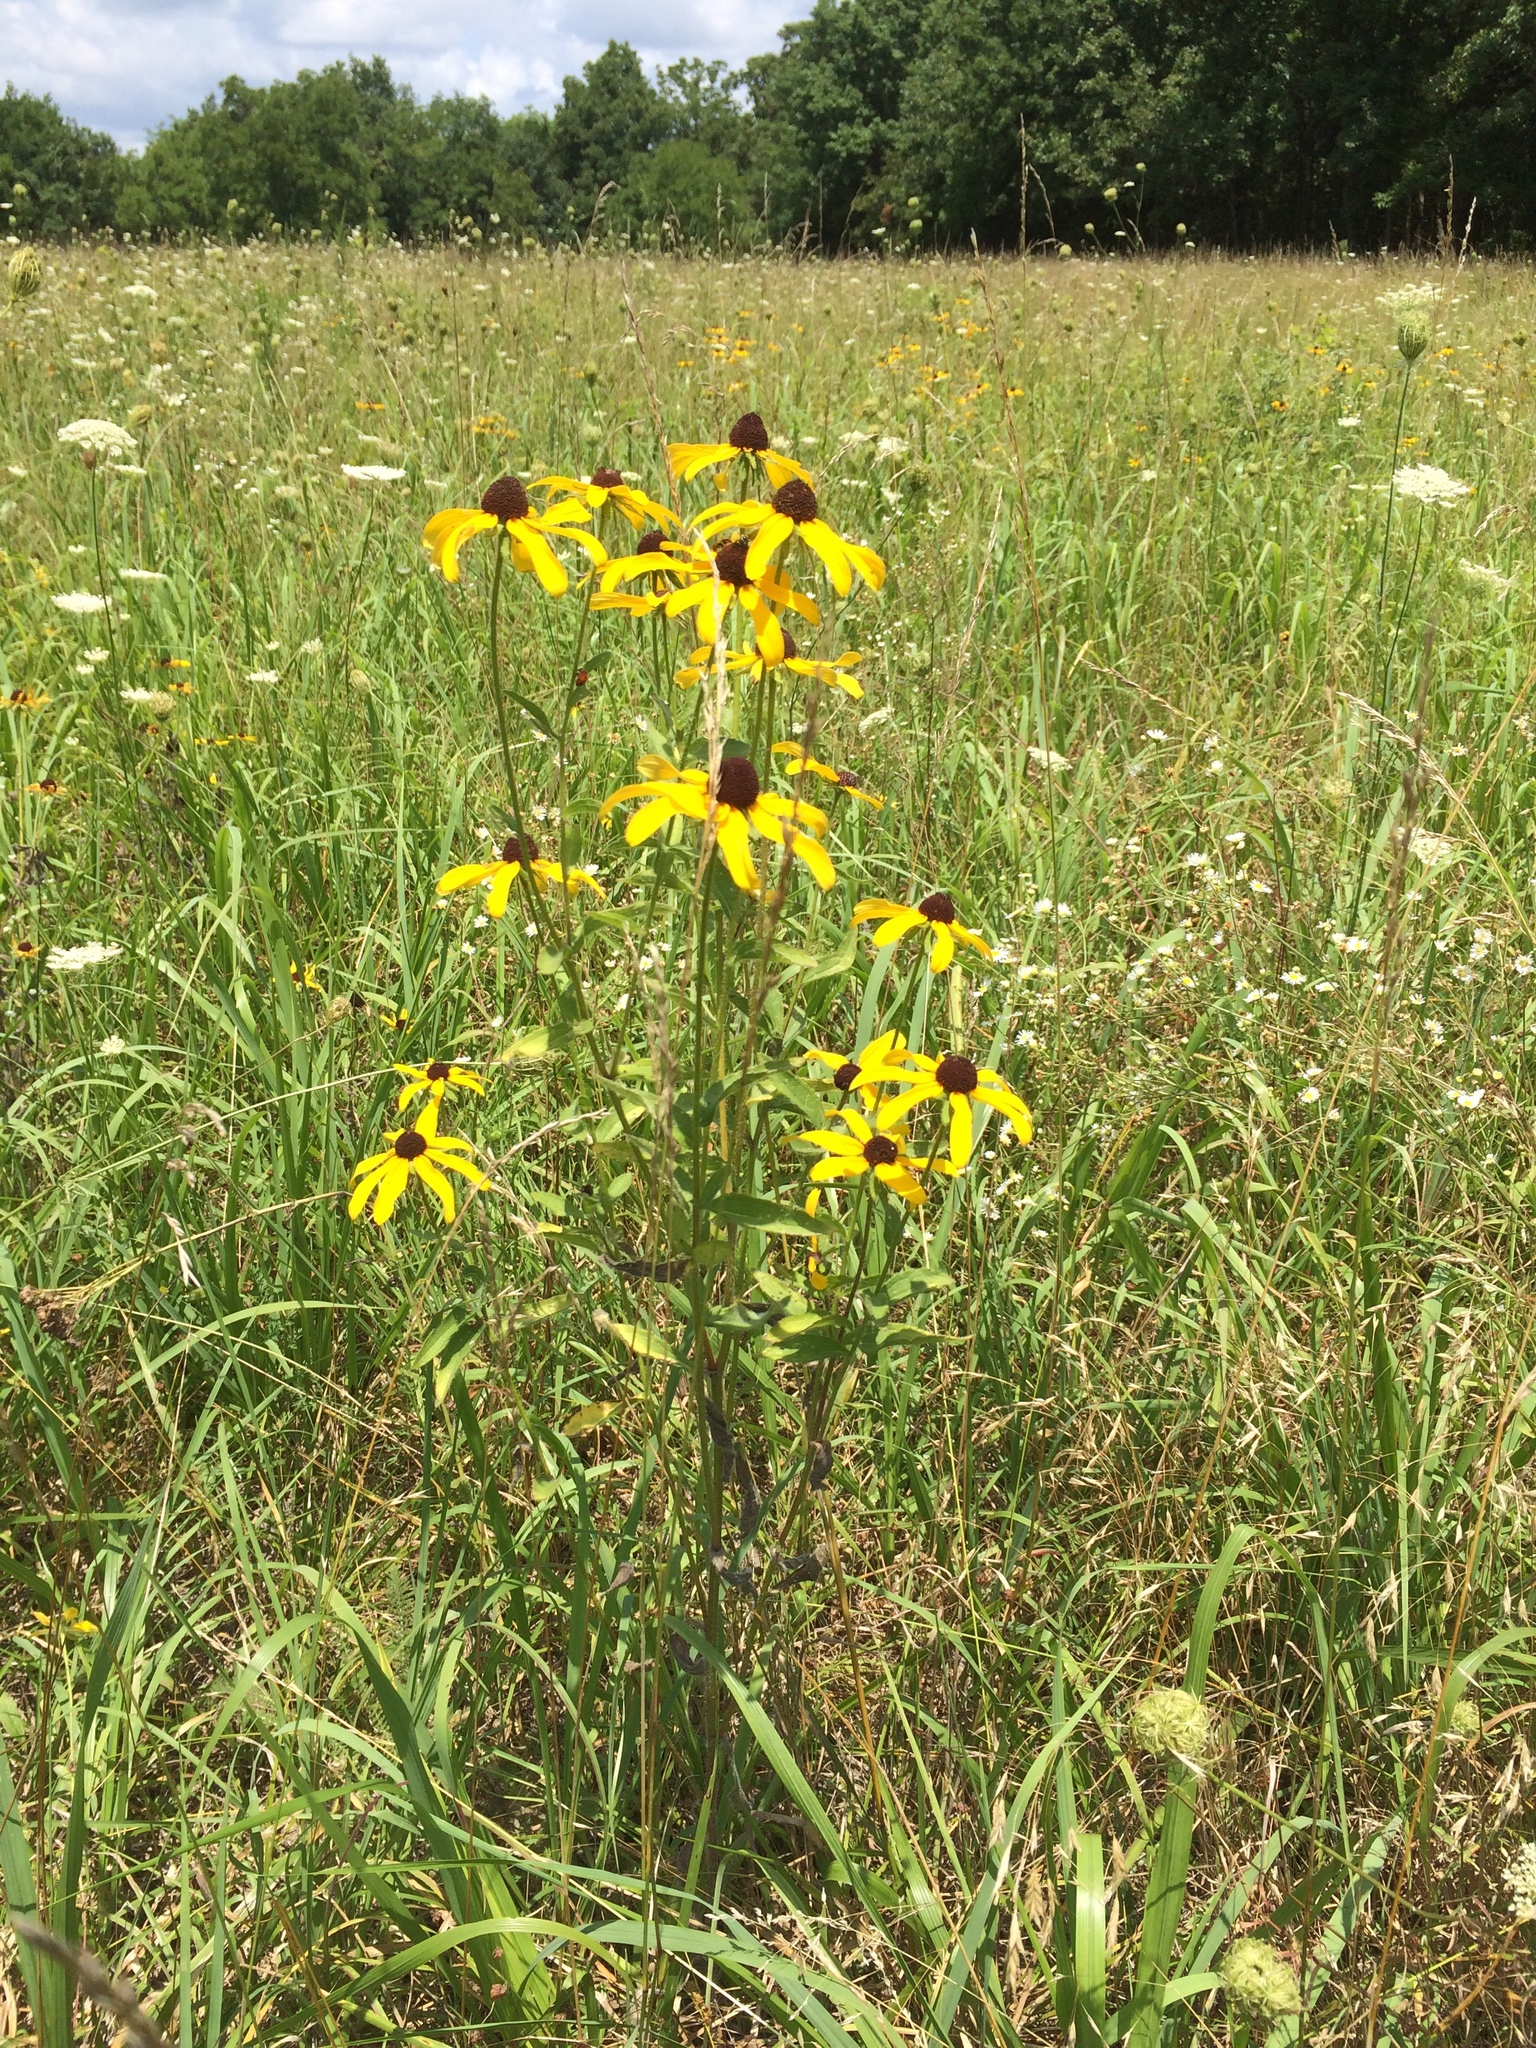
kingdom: Plantae
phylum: Tracheophyta
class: Magnoliopsida
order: Asterales
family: Asteraceae
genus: Rudbeckia
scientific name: Rudbeckia hirta
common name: Black-eyed-susan
